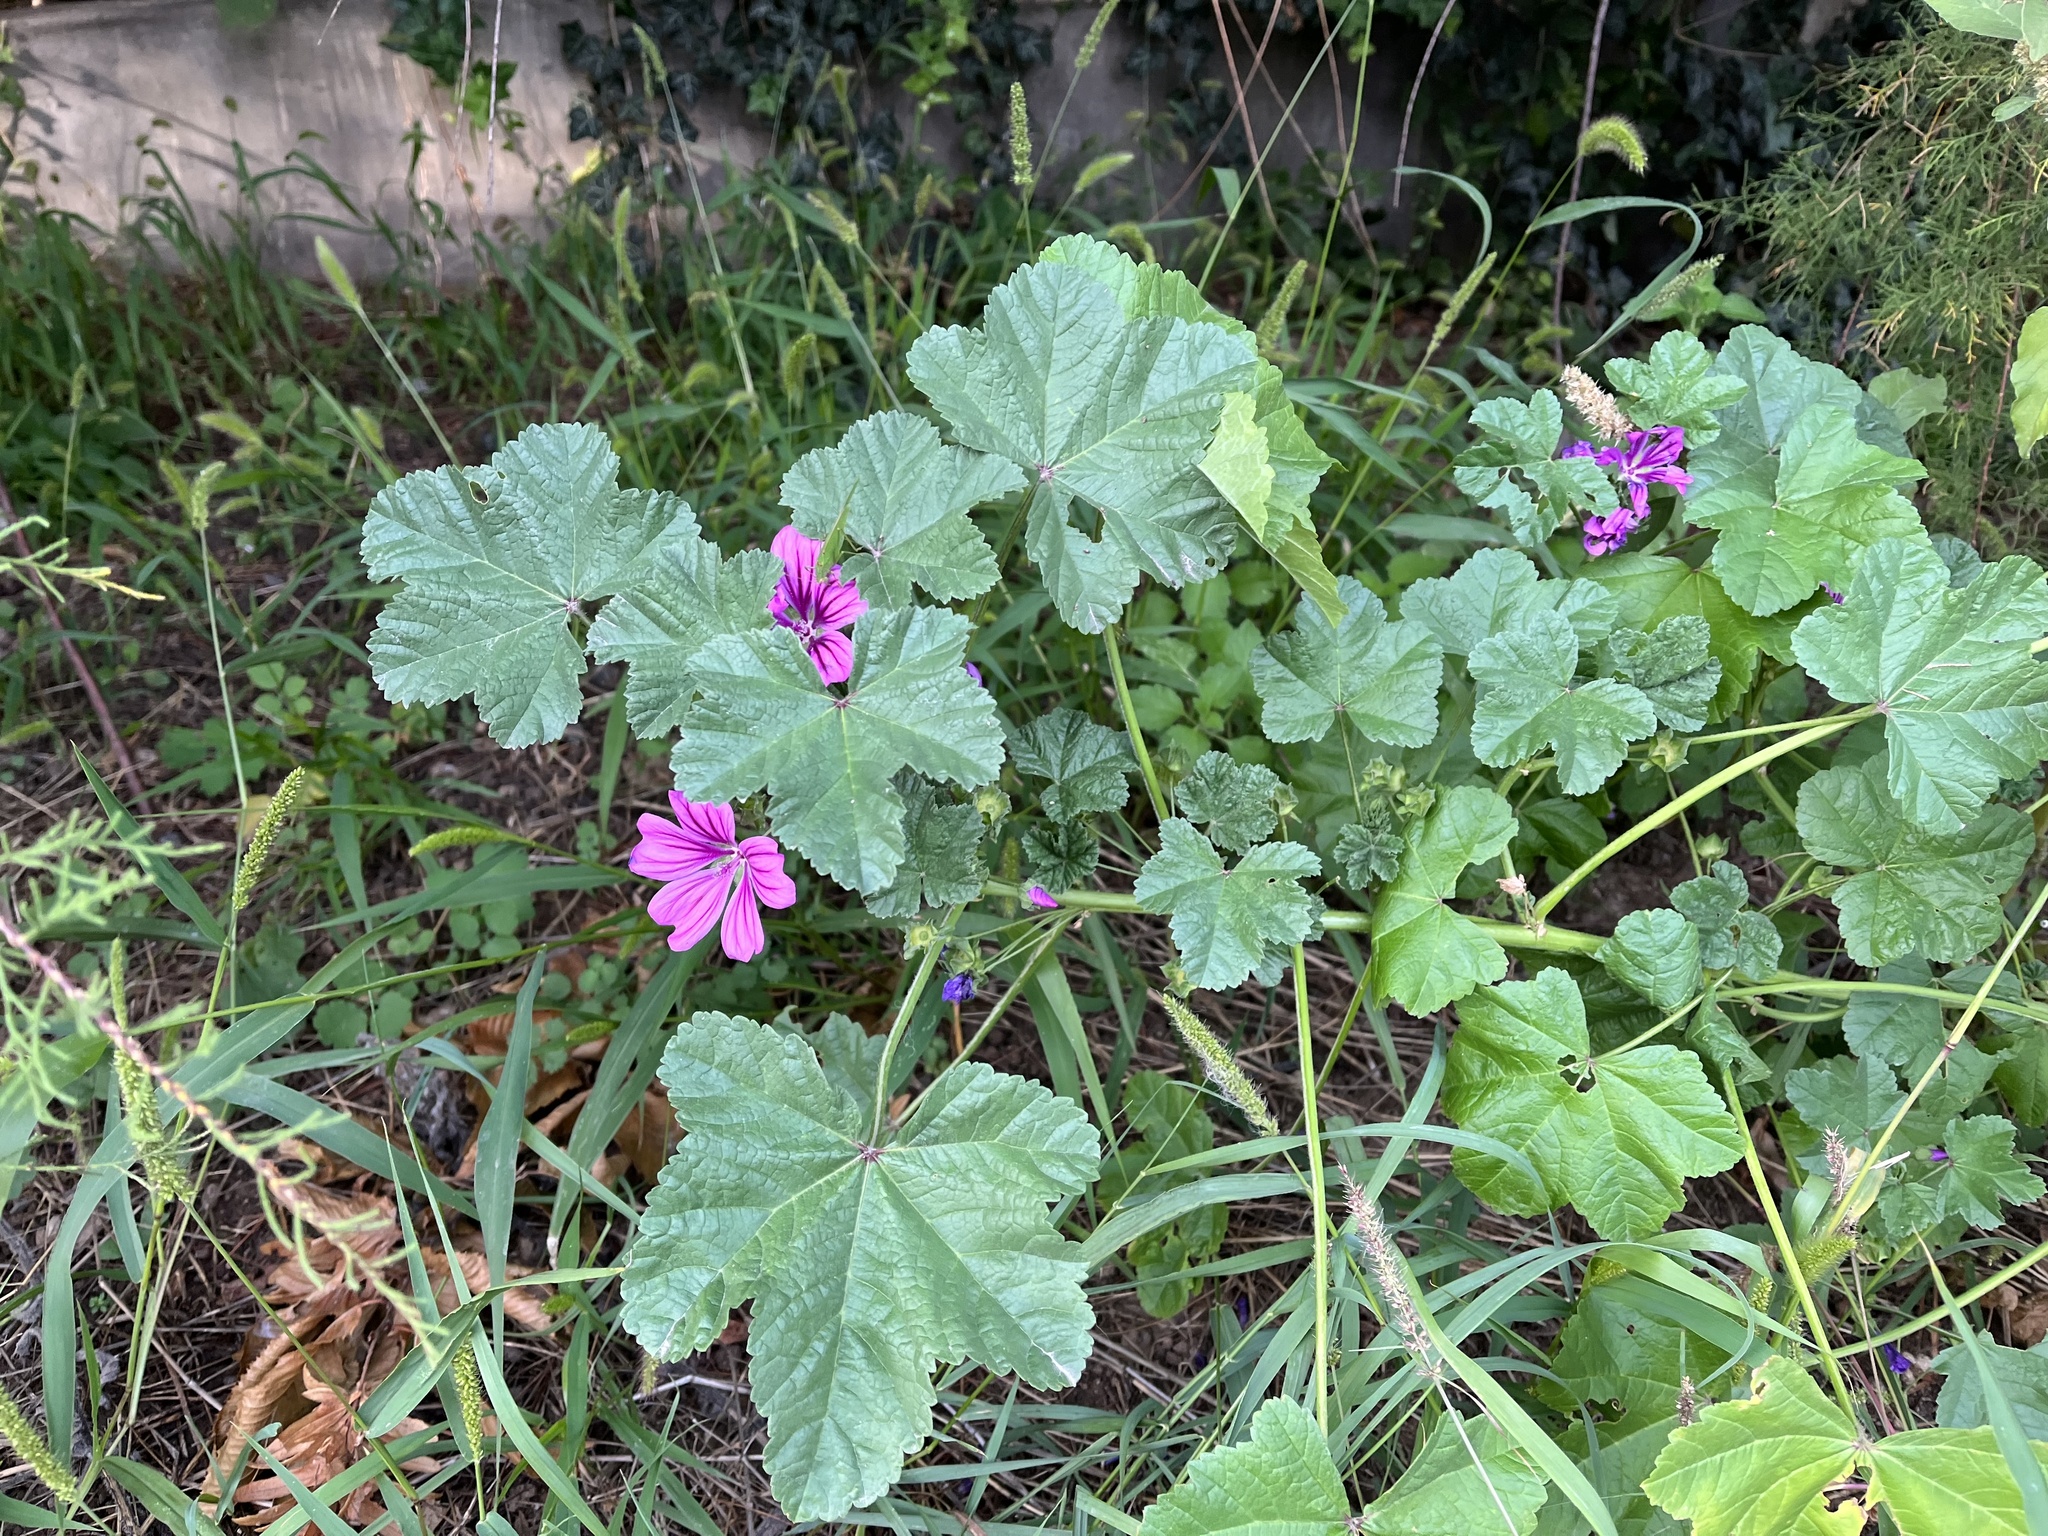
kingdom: Plantae
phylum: Tracheophyta
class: Magnoliopsida
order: Malvales
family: Malvaceae
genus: Malva
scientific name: Malva sylvestris
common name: Common mallow
